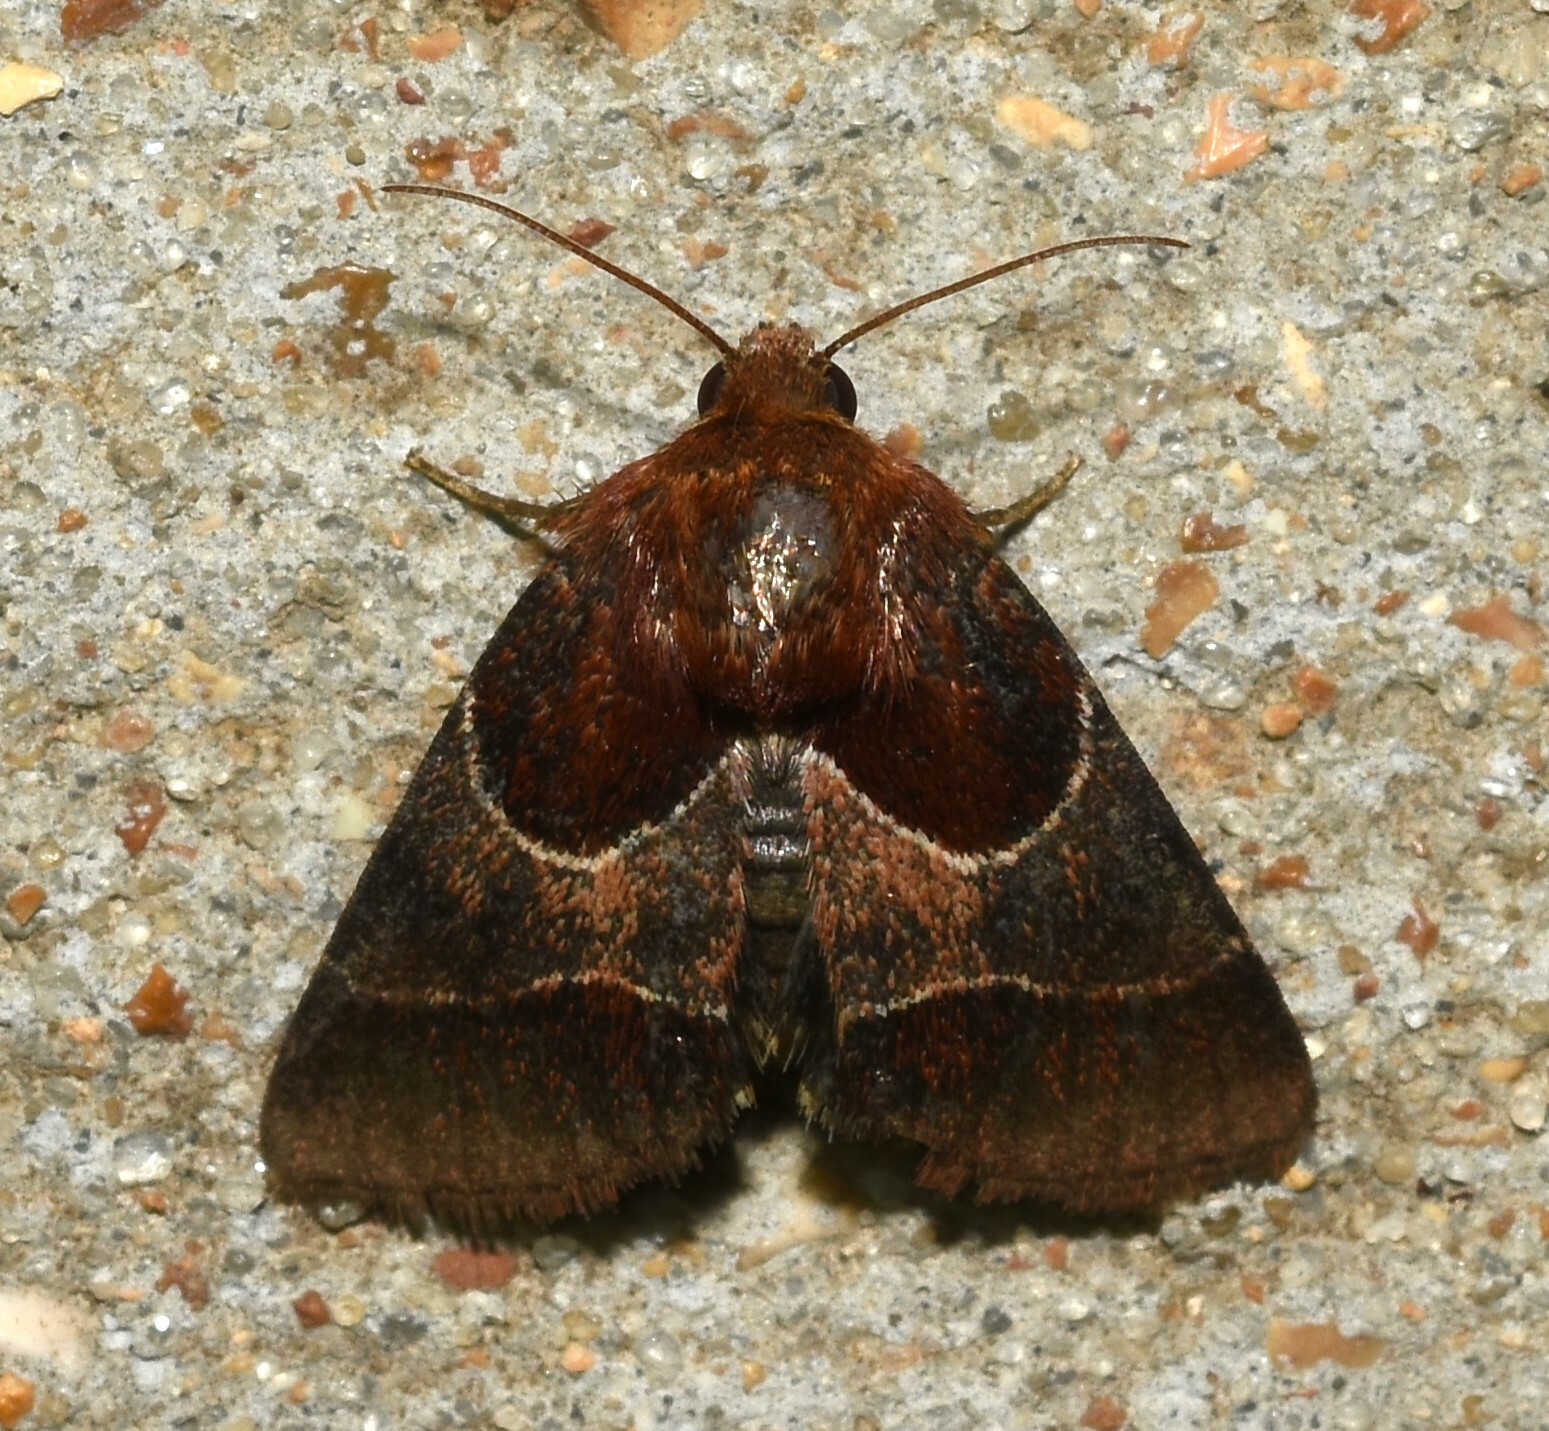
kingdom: Animalia
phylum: Arthropoda
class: Insecta
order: Lepidoptera
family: Noctuidae
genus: Schinia
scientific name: Schinia arcigera
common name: Arcigera flower moth
